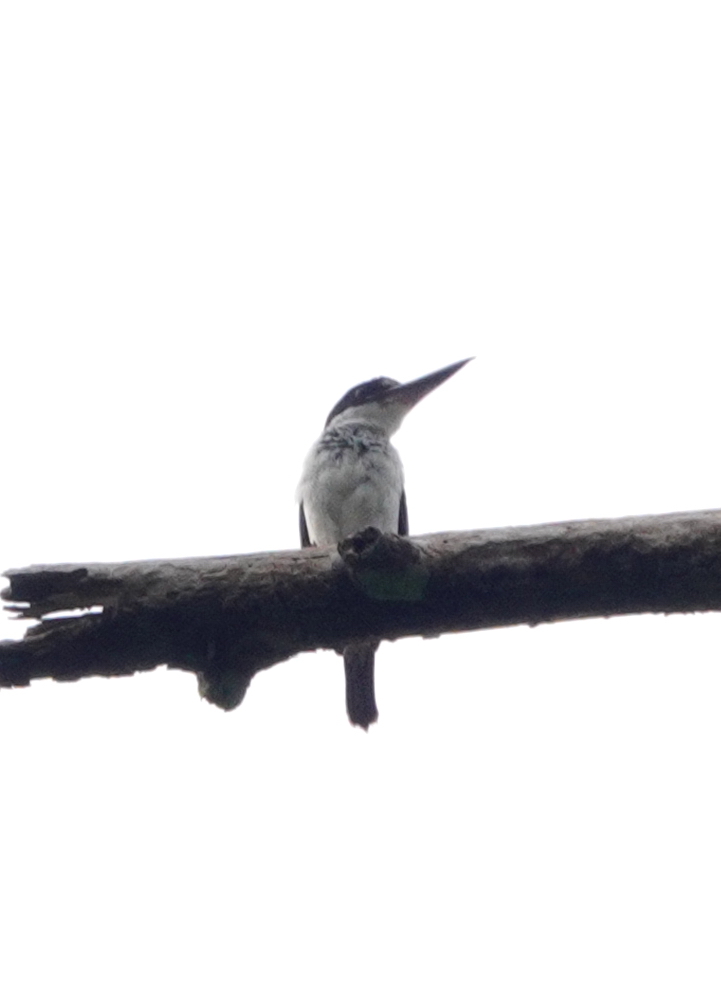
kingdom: Animalia
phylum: Chordata
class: Aves
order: Coraciiformes
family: Alcedinidae
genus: Todiramphus
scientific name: Todiramphus chloris
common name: Collared kingfisher
